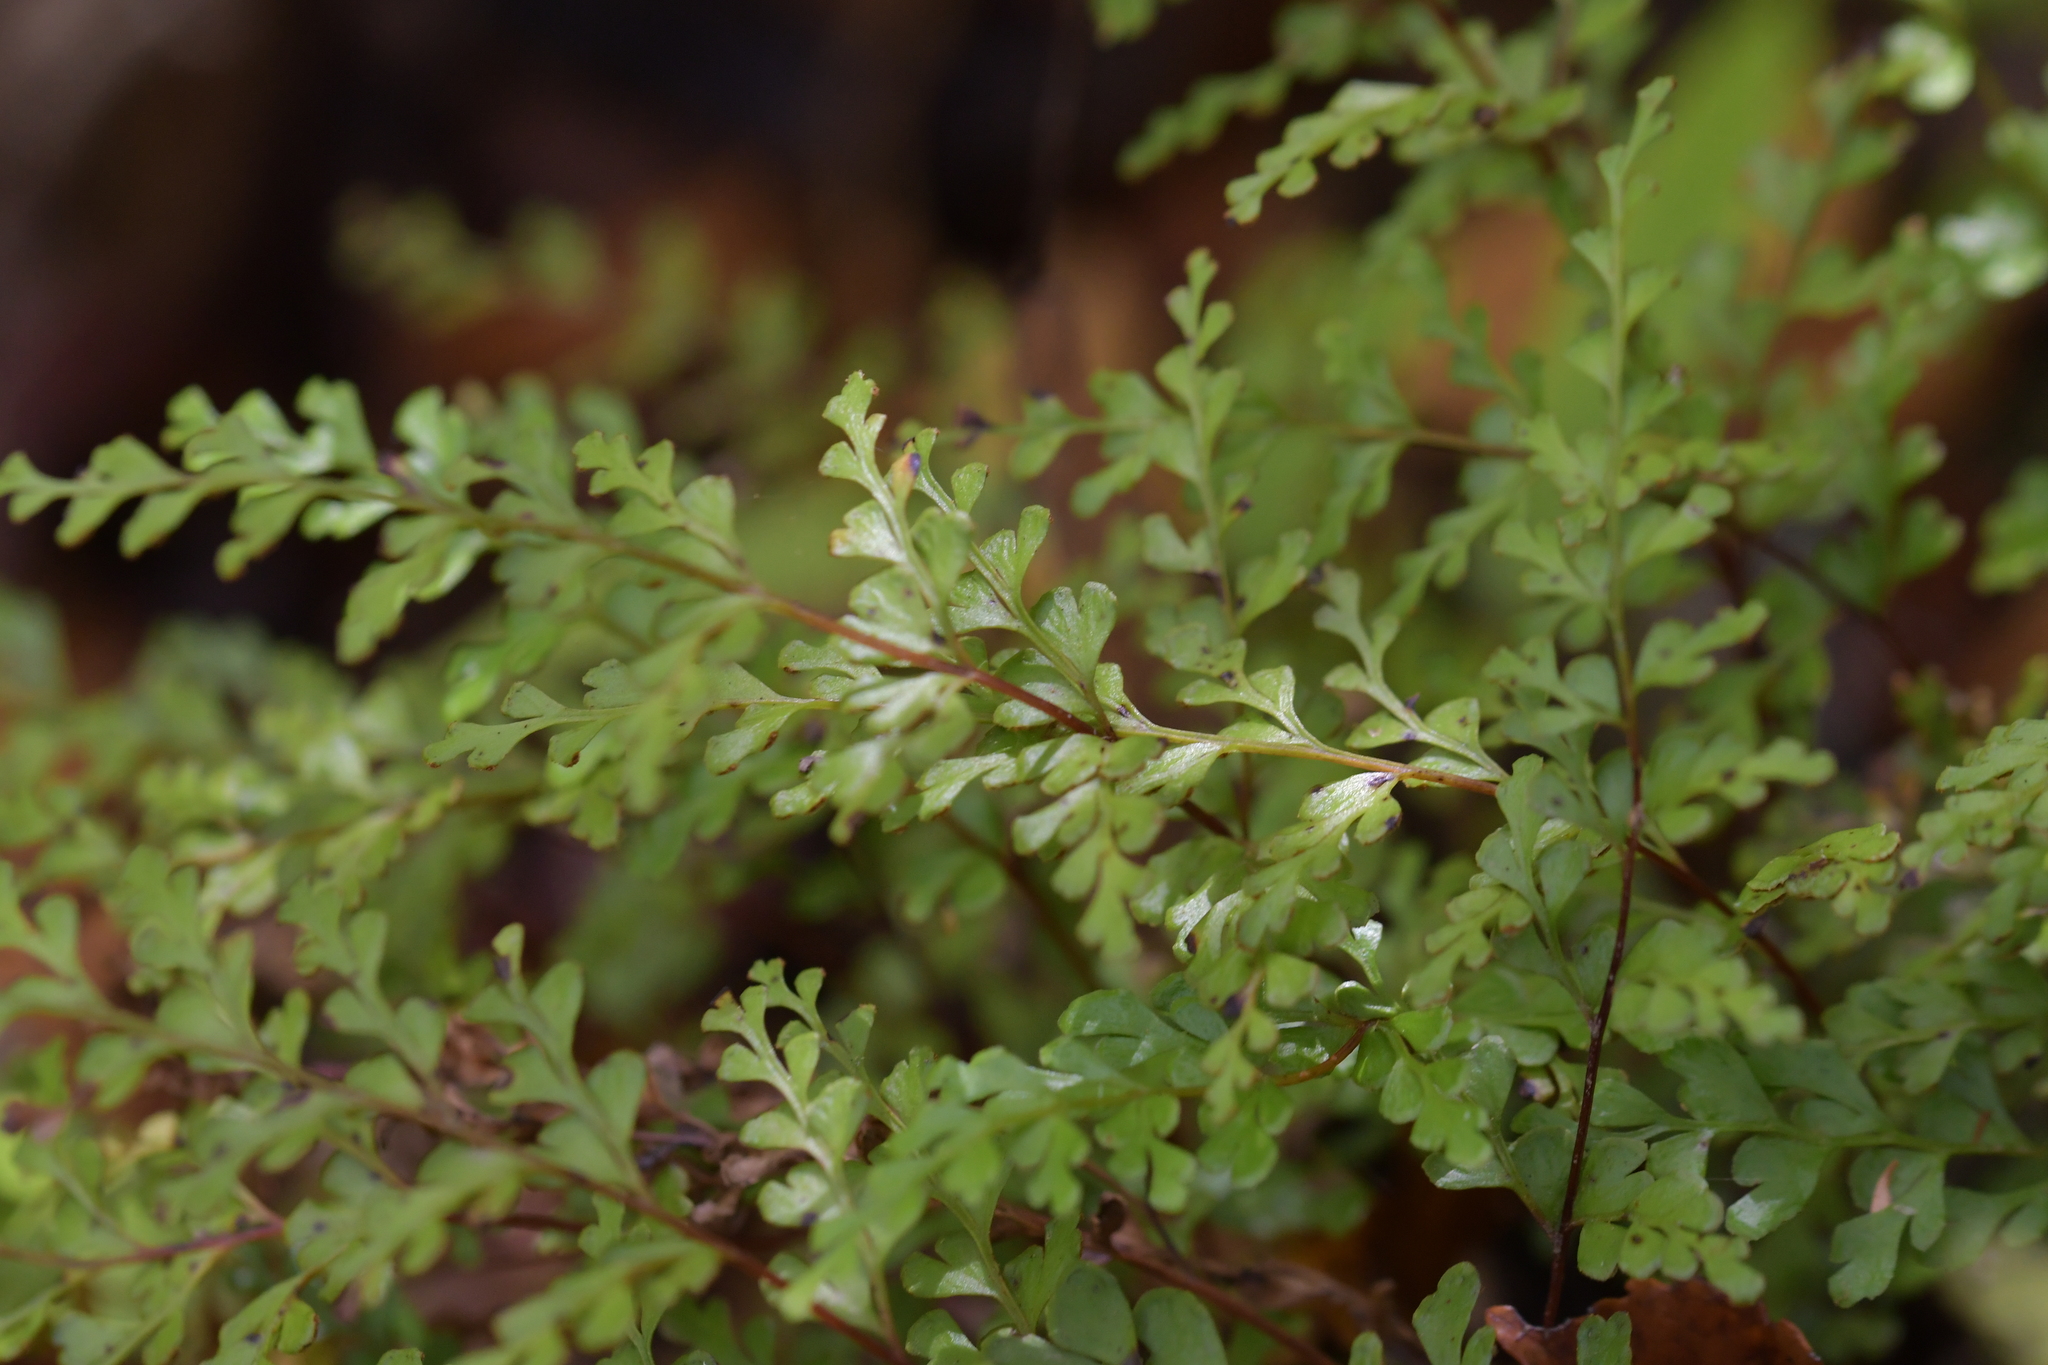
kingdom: Plantae
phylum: Tracheophyta
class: Polypodiopsida
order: Polypodiales
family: Lindsaeaceae
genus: Lindsaea
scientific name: Lindsaea trichomanoides
